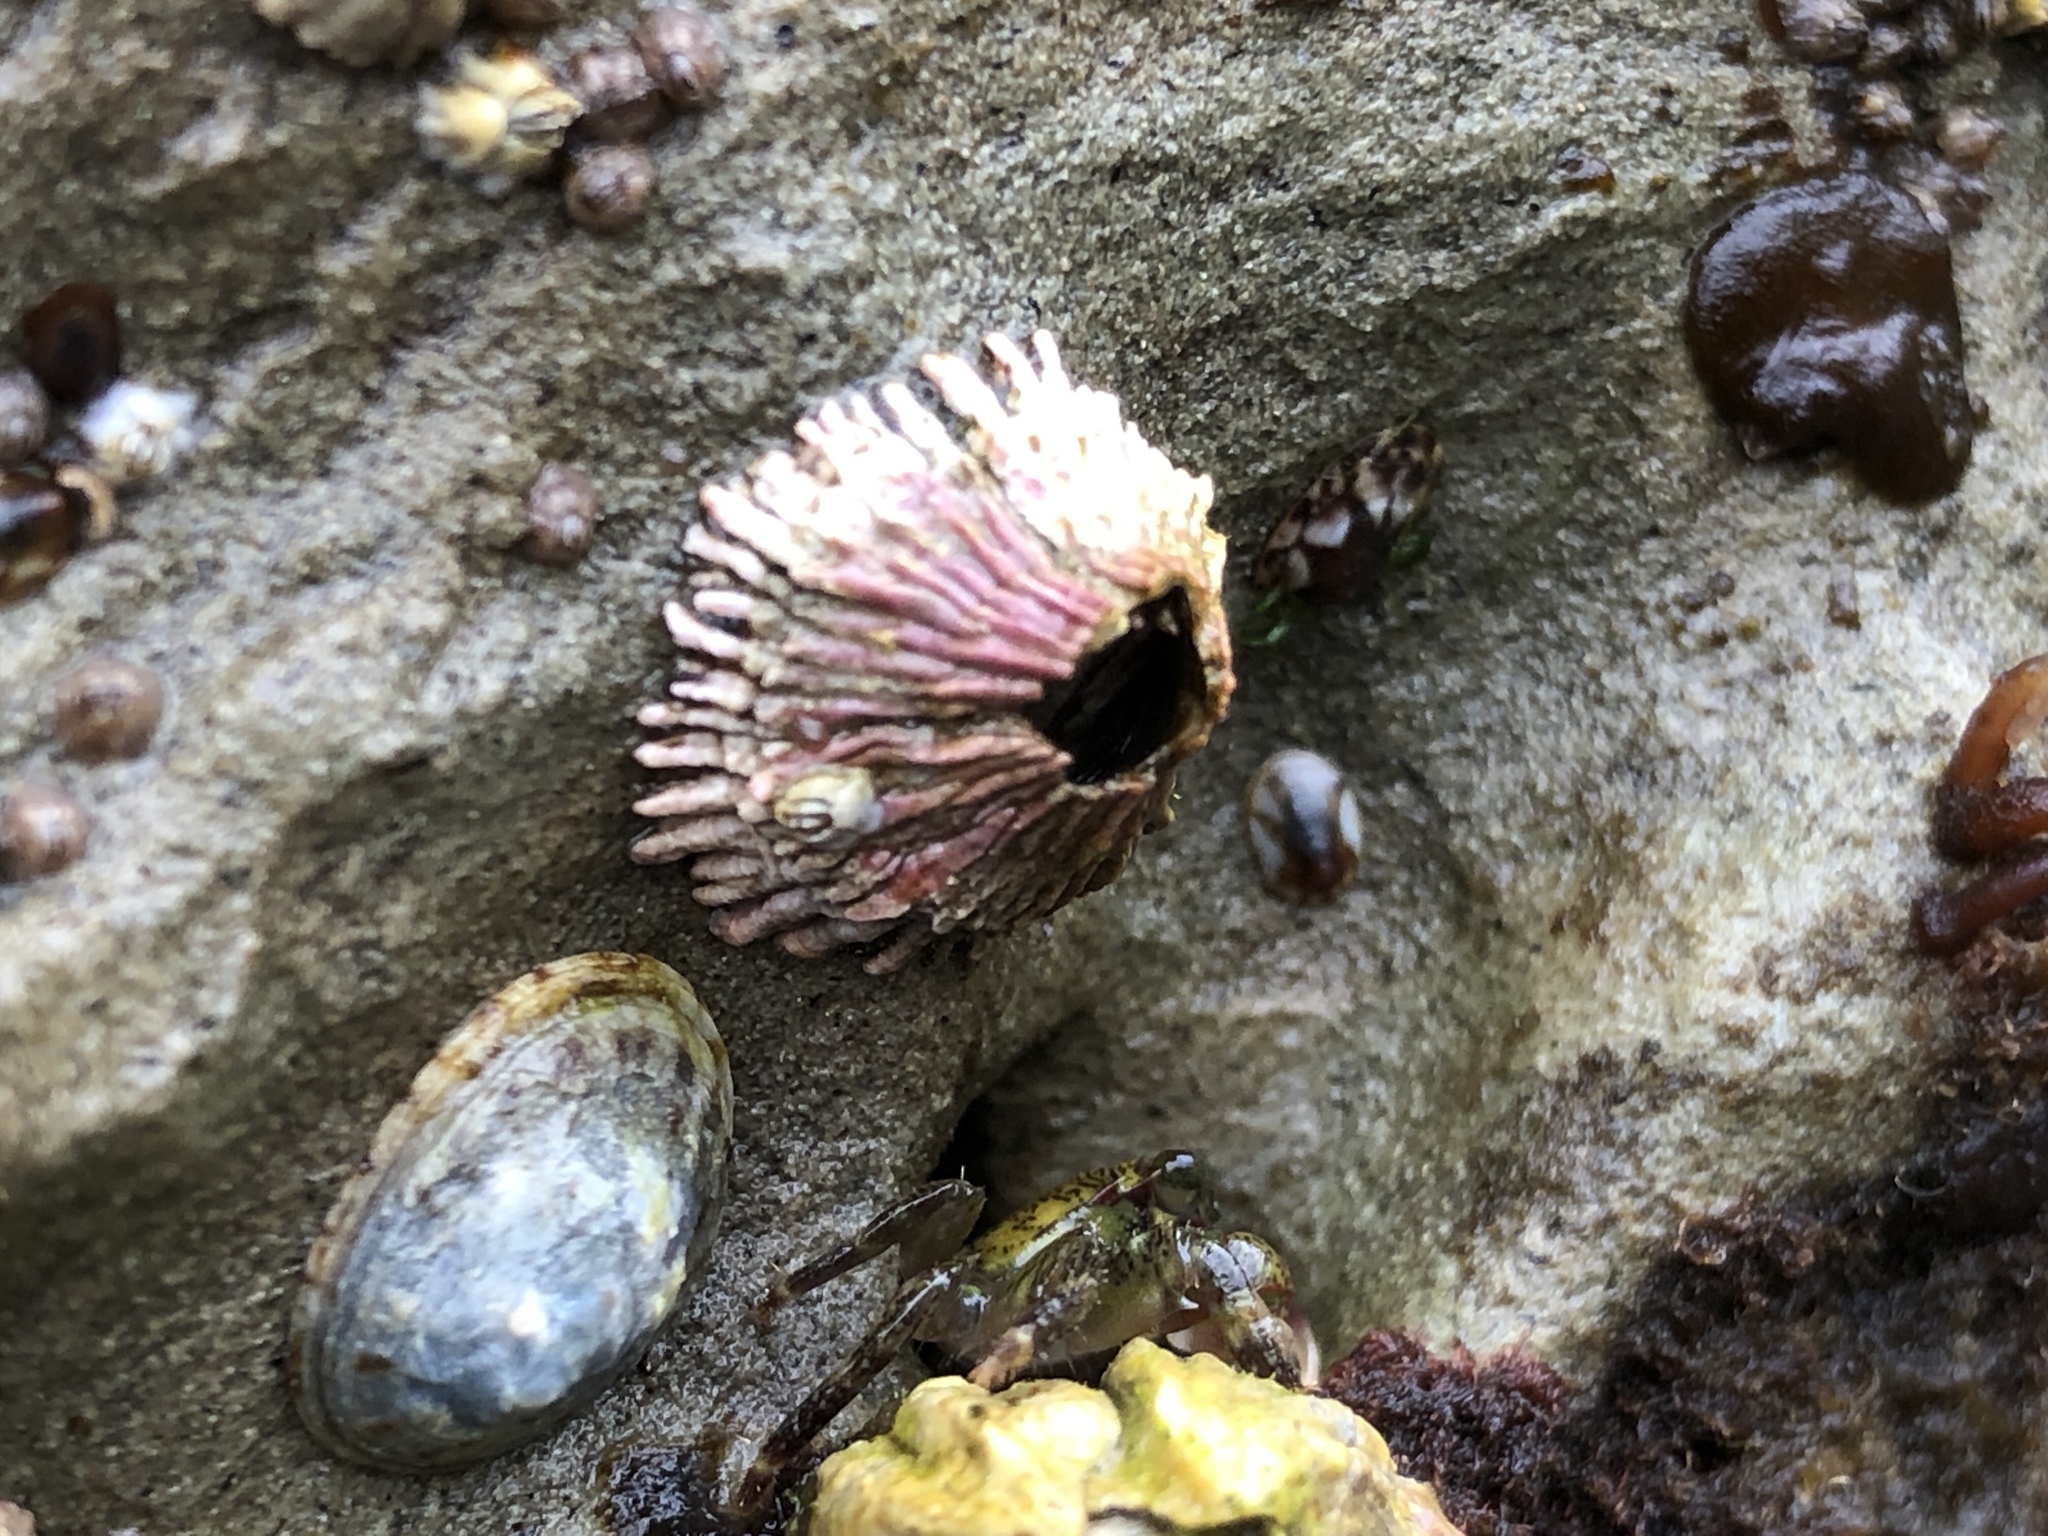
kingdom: Animalia
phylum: Arthropoda
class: Maxillopoda
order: Sessilia
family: Tetraclitidae
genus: Tetraclita
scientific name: Tetraclita rubescens
